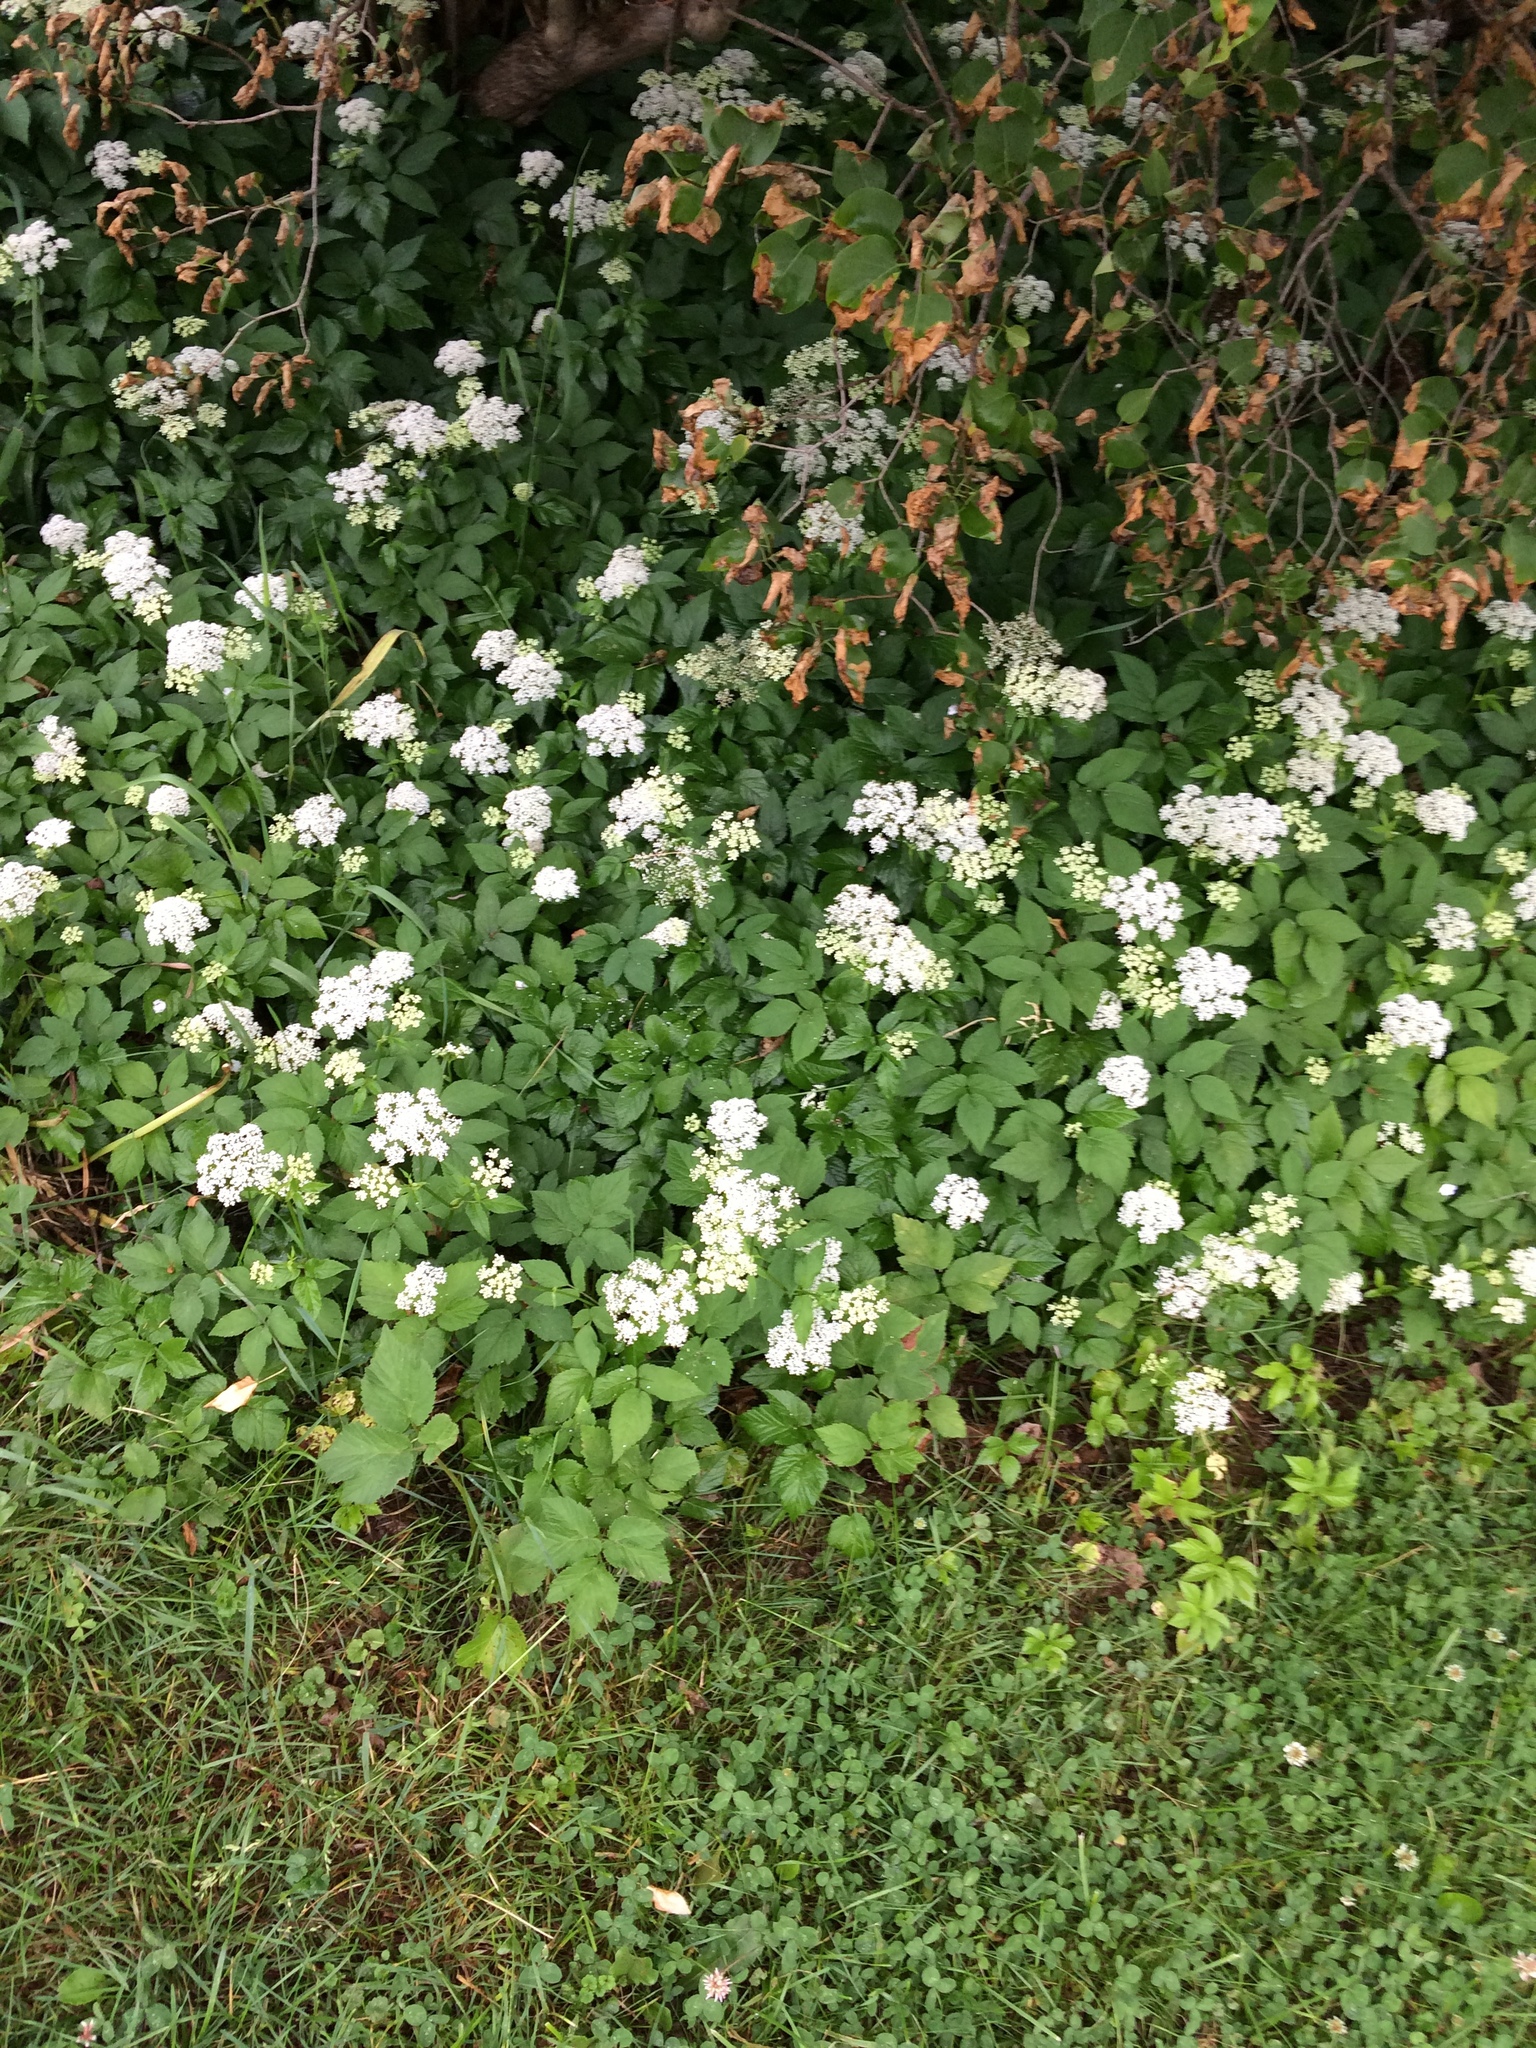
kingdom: Plantae
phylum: Tracheophyta
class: Magnoliopsida
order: Apiales
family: Apiaceae
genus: Aegopodium
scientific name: Aegopodium podagraria
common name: Ground-elder
